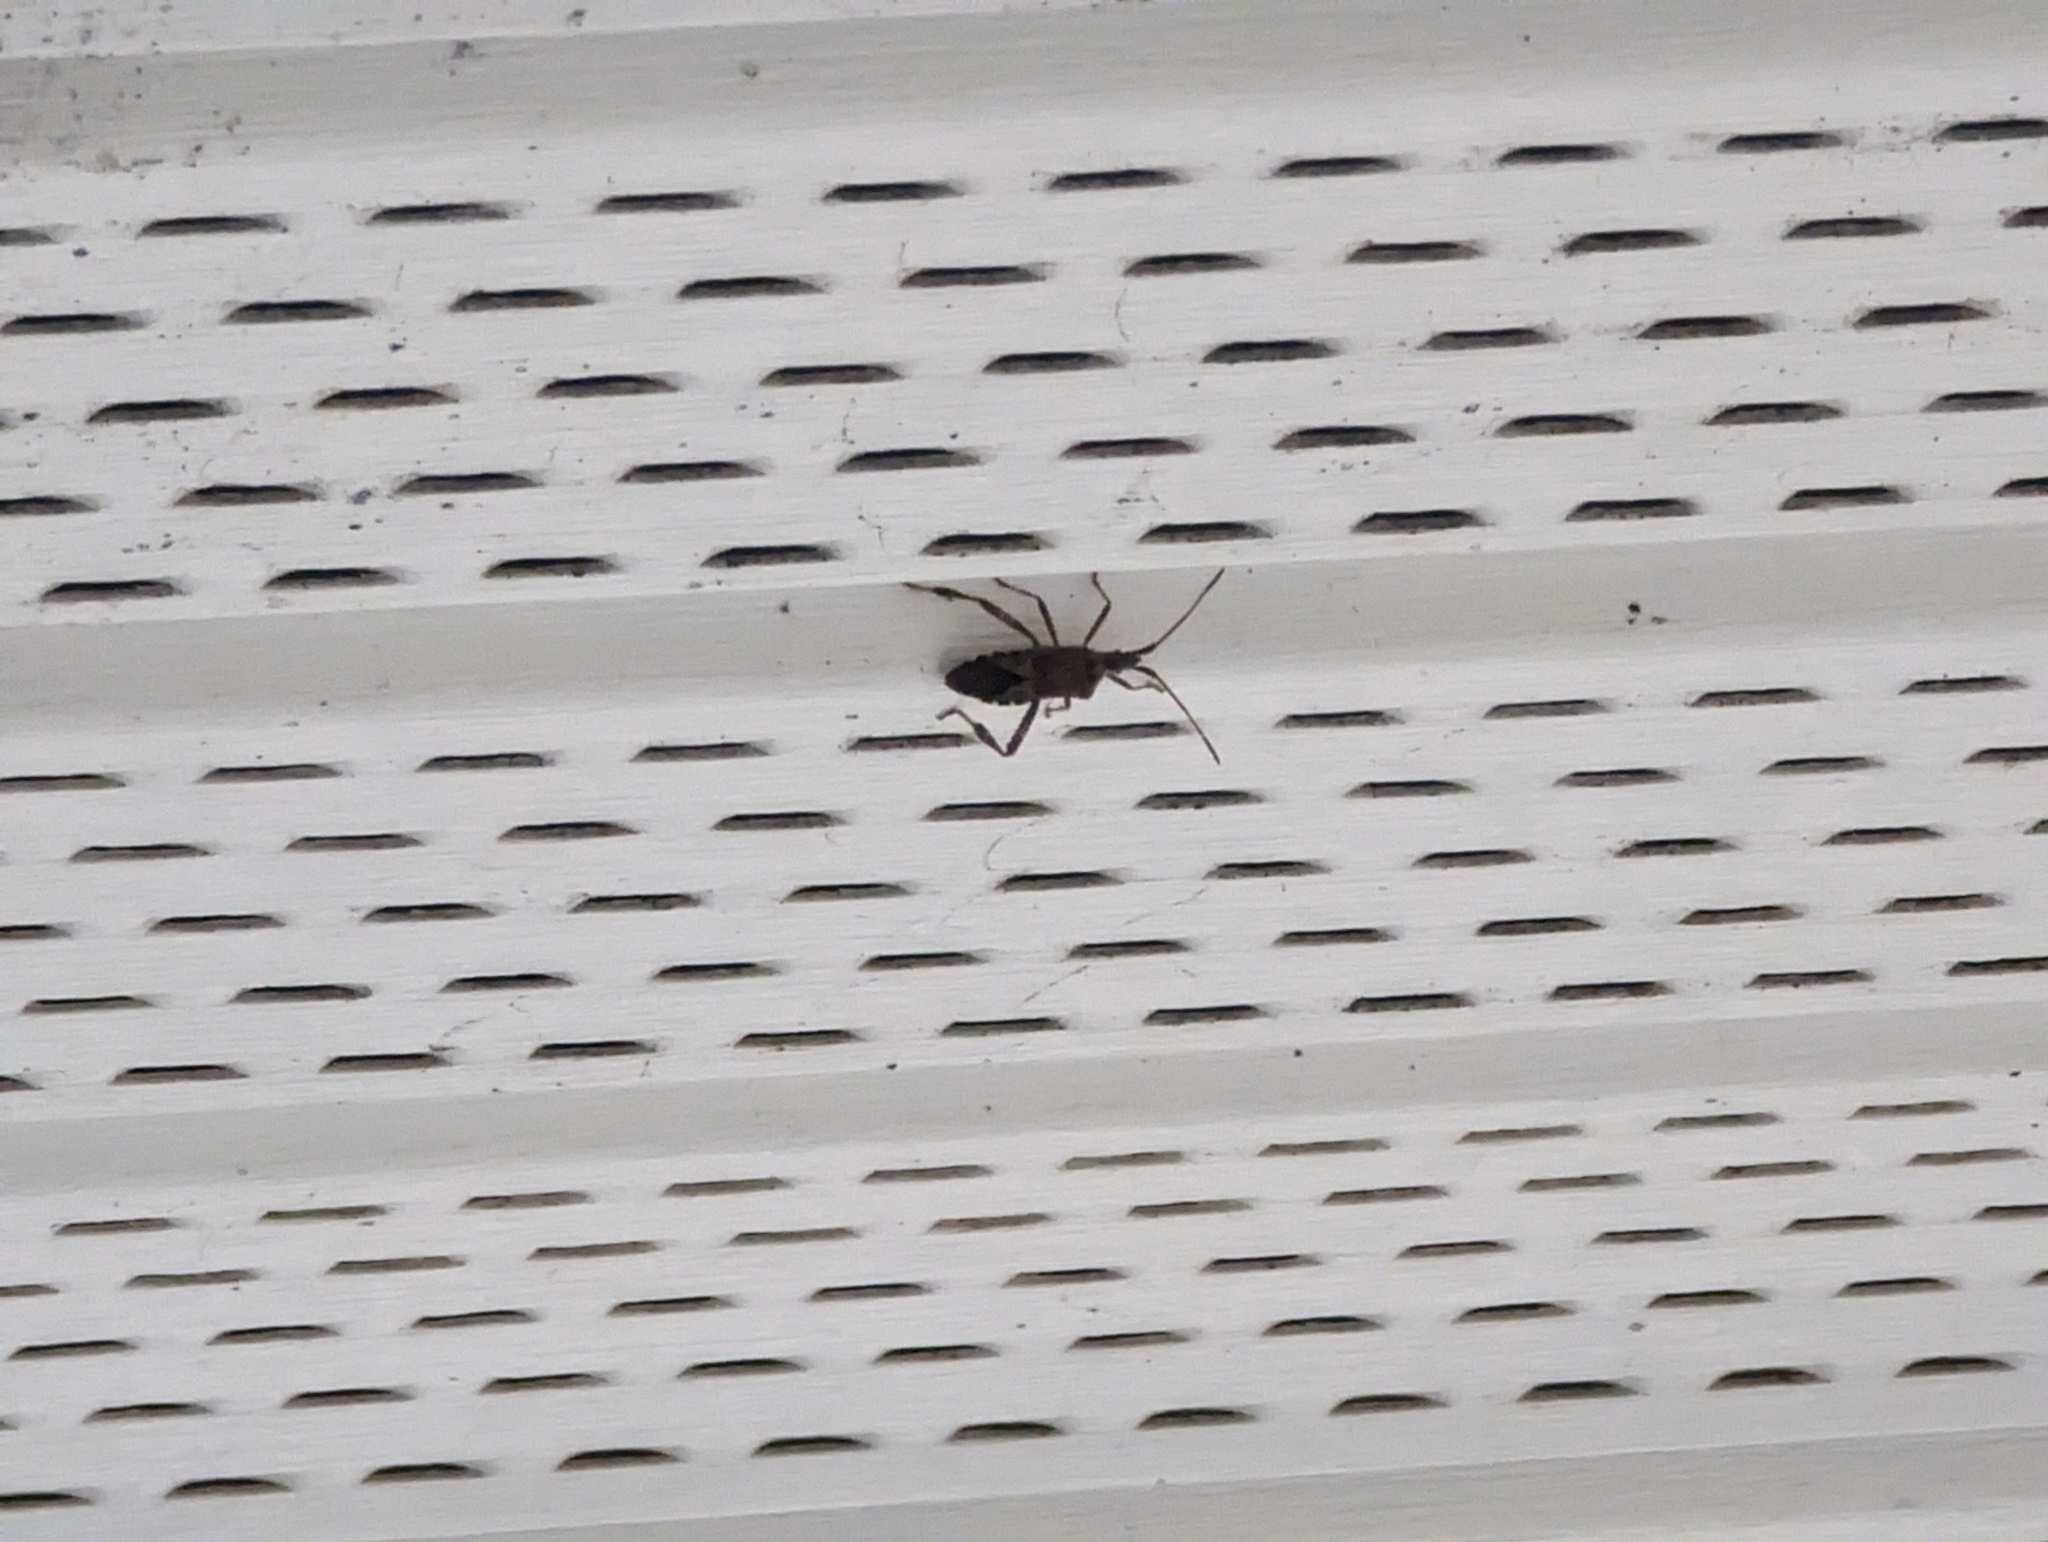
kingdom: Animalia
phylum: Arthropoda
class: Insecta
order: Hemiptera
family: Coreidae
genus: Leptoglossus
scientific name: Leptoglossus occidentalis
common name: Western conifer-seed bug
